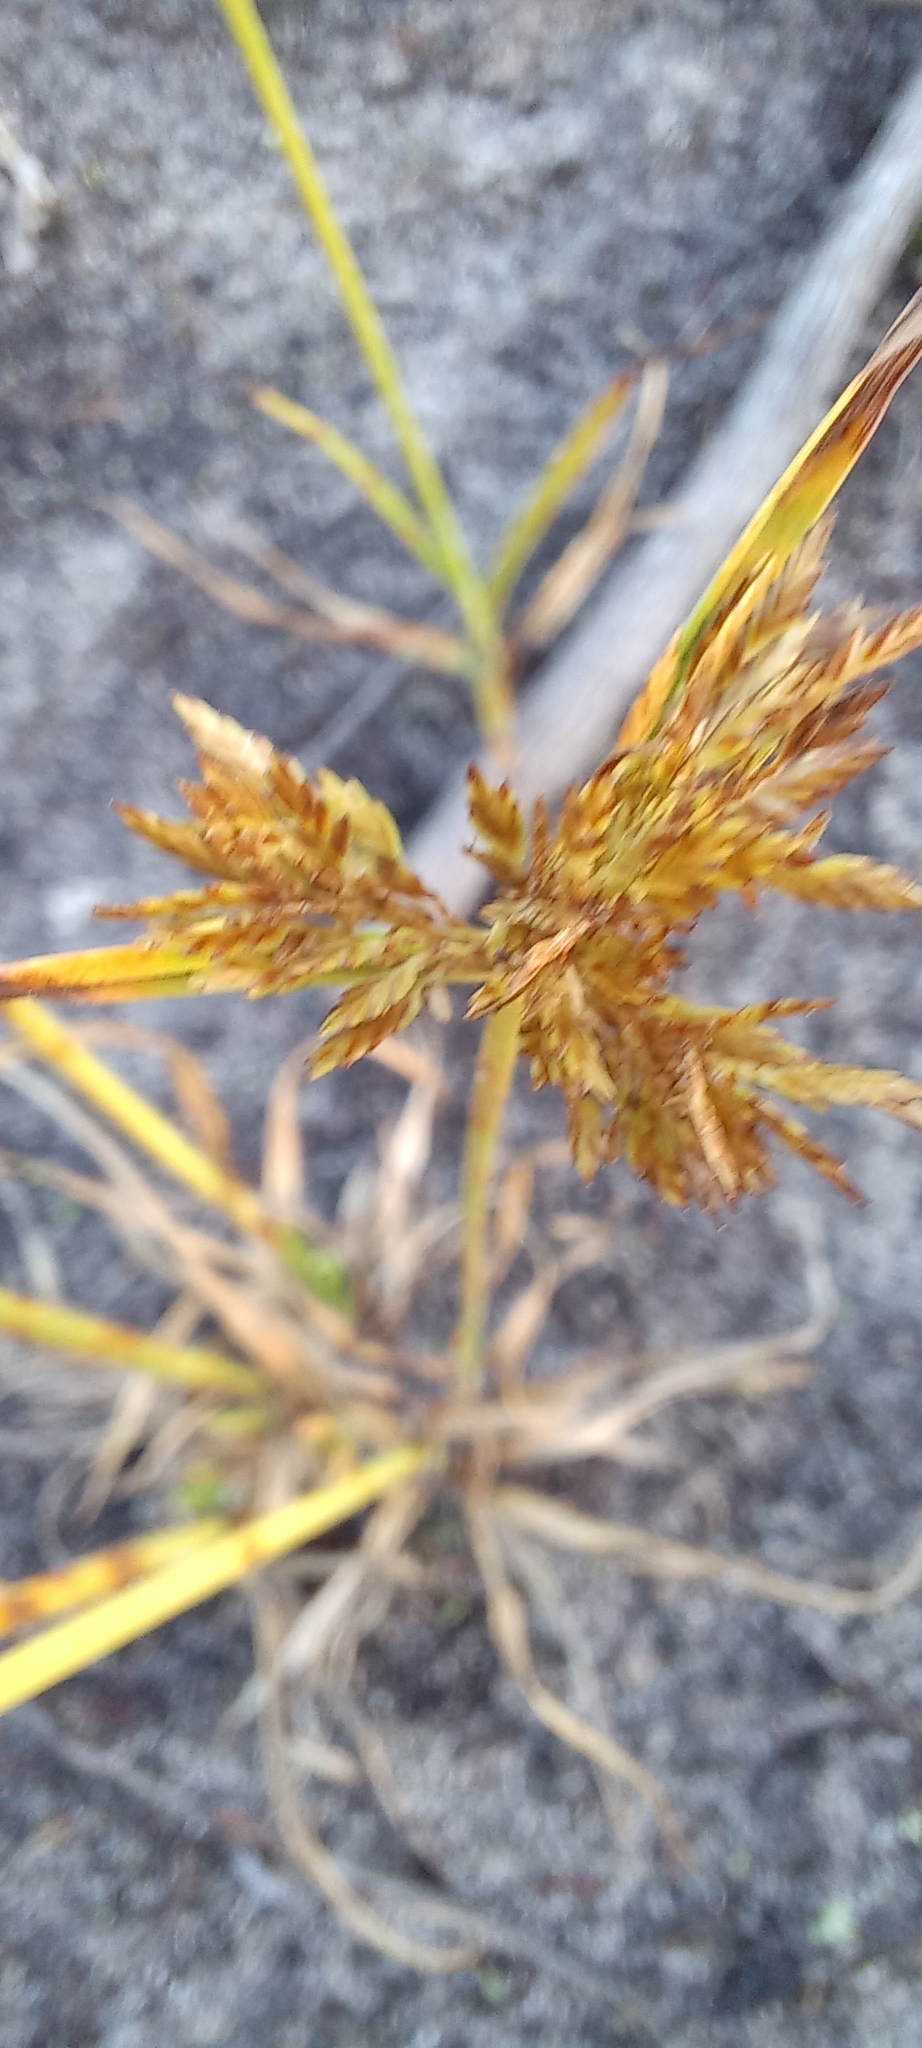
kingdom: Plantae
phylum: Tracheophyta
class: Liliopsida
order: Poales
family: Cyperaceae
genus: Cyperus
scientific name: Cyperus polystachyos
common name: Bunchy flat sedge
